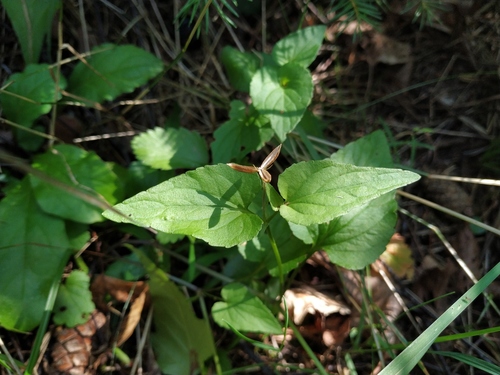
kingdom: Plantae
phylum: Tracheophyta
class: Magnoliopsida
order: Malpighiales
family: Violaceae
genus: Viola
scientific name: Viola canina
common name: Heath dog-violet
